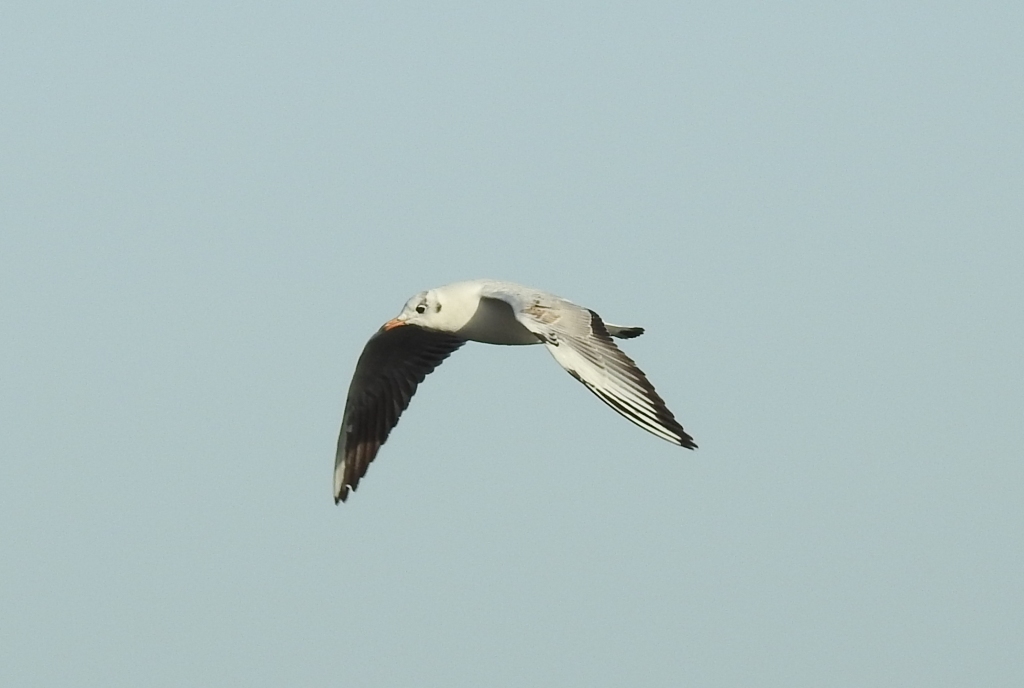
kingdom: Animalia
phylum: Chordata
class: Aves
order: Charadriiformes
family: Laridae
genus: Chroicocephalus
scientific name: Chroicocephalus ridibundus
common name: Black-headed gull
